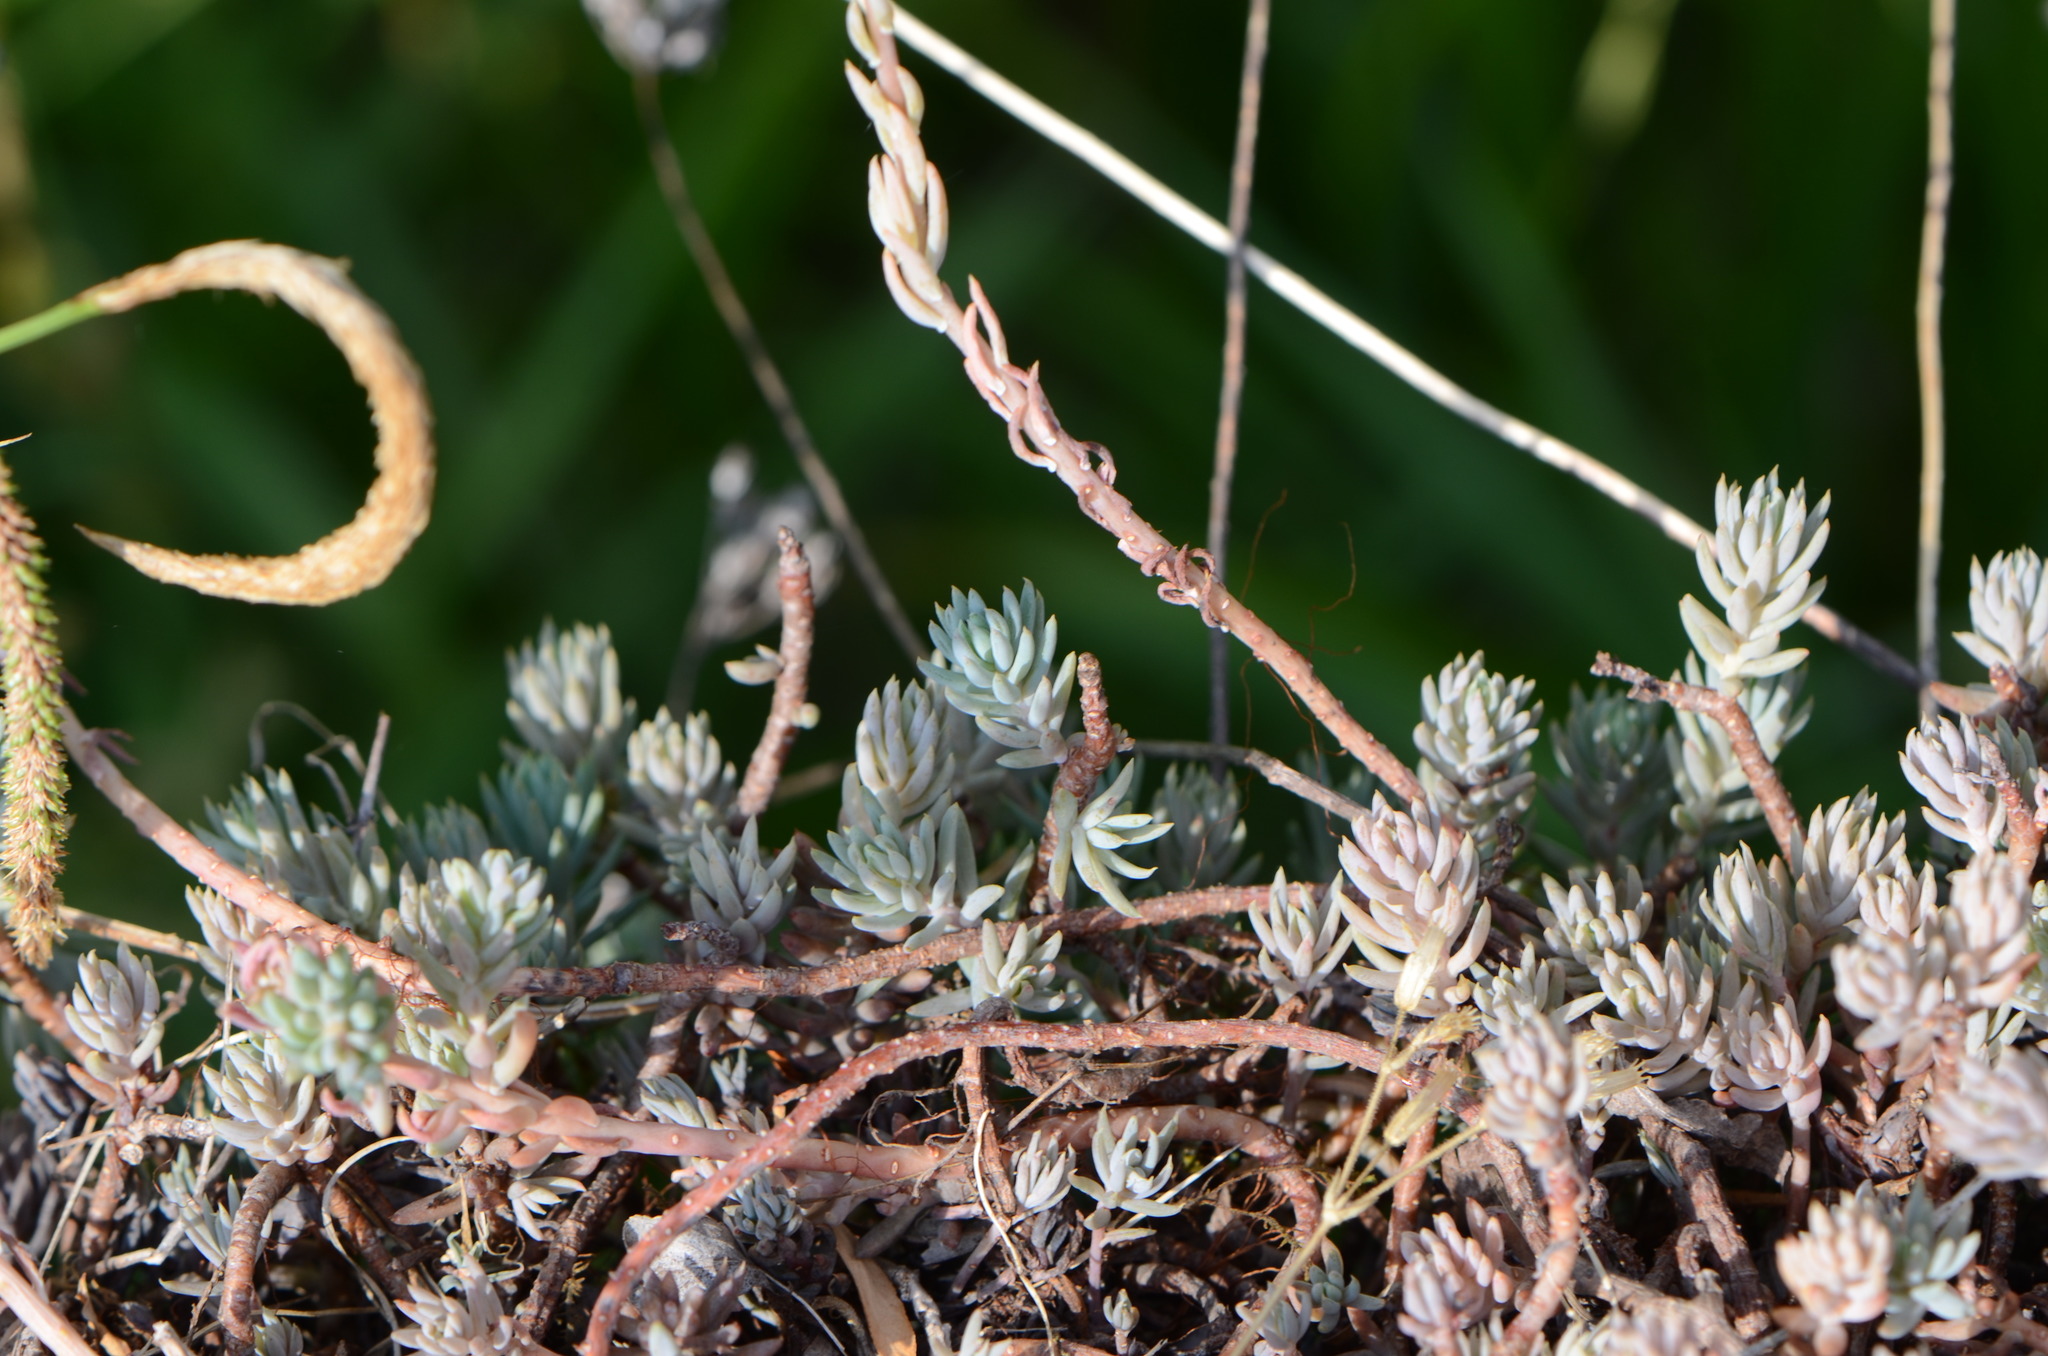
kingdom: Plantae
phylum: Tracheophyta
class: Magnoliopsida
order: Saxifragales
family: Crassulaceae
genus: Petrosedum
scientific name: Petrosedum
